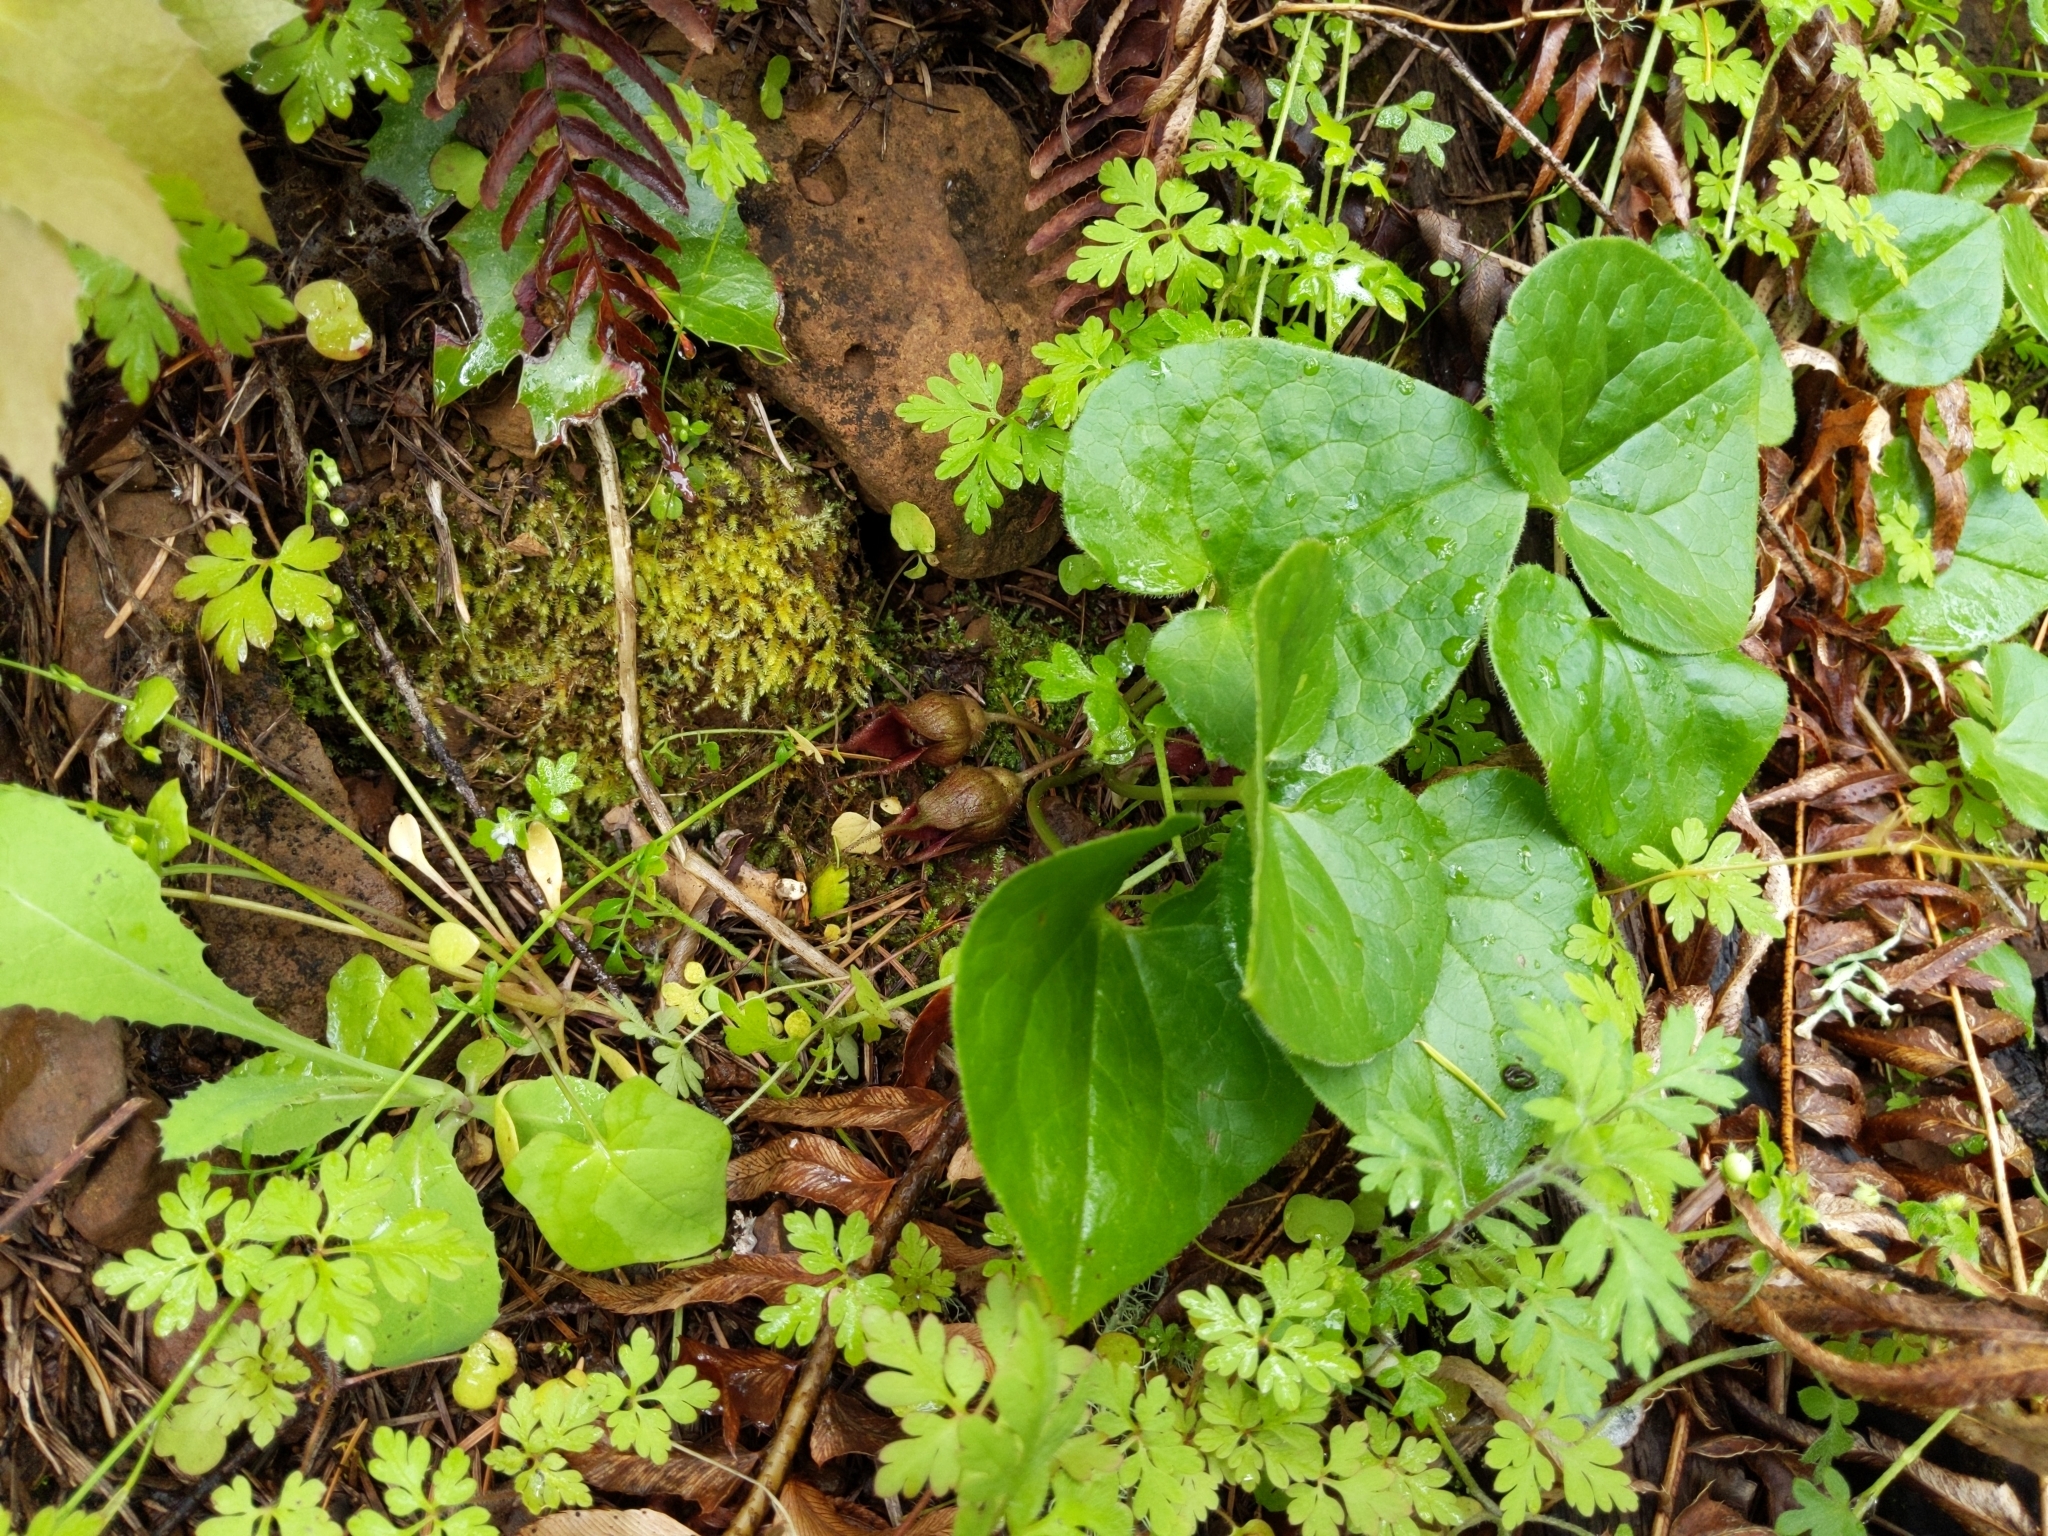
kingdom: Plantae
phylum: Tracheophyta
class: Magnoliopsida
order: Piperales
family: Aristolochiaceae
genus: Asarum
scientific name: Asarum caudatum
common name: Wild ginger
